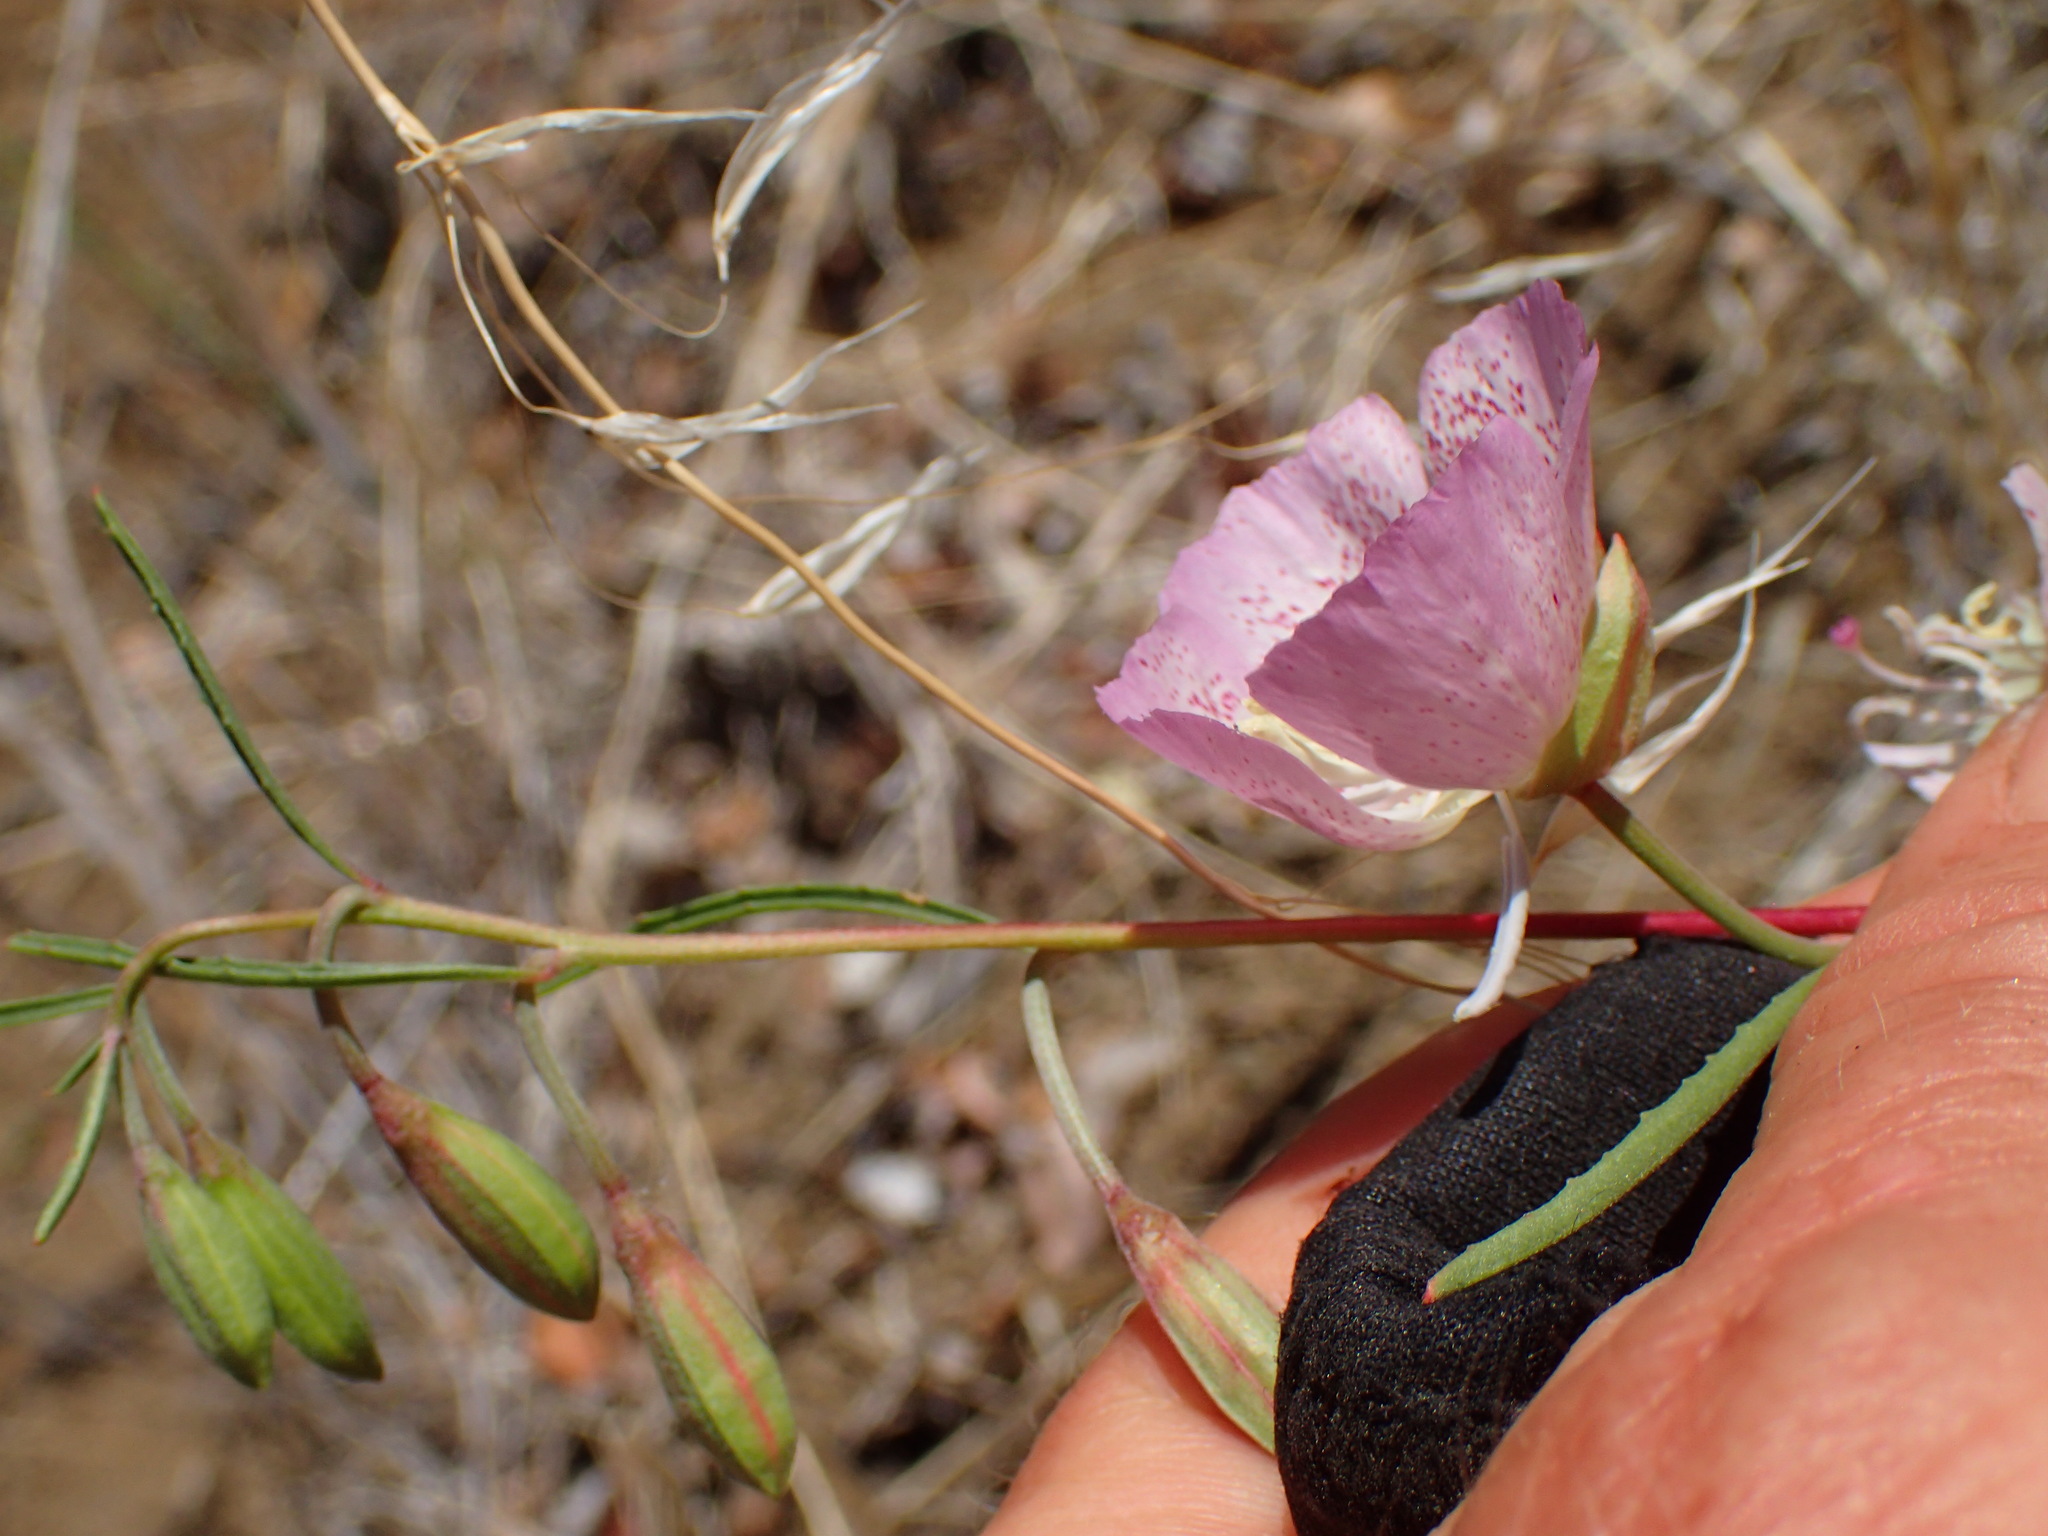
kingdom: Plantae
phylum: Tracheophyta
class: Magnoliopsida
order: Myrtales
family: Onagraceae
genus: Clarkia
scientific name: Clarkia bottae
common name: Punch-bowl godetia
